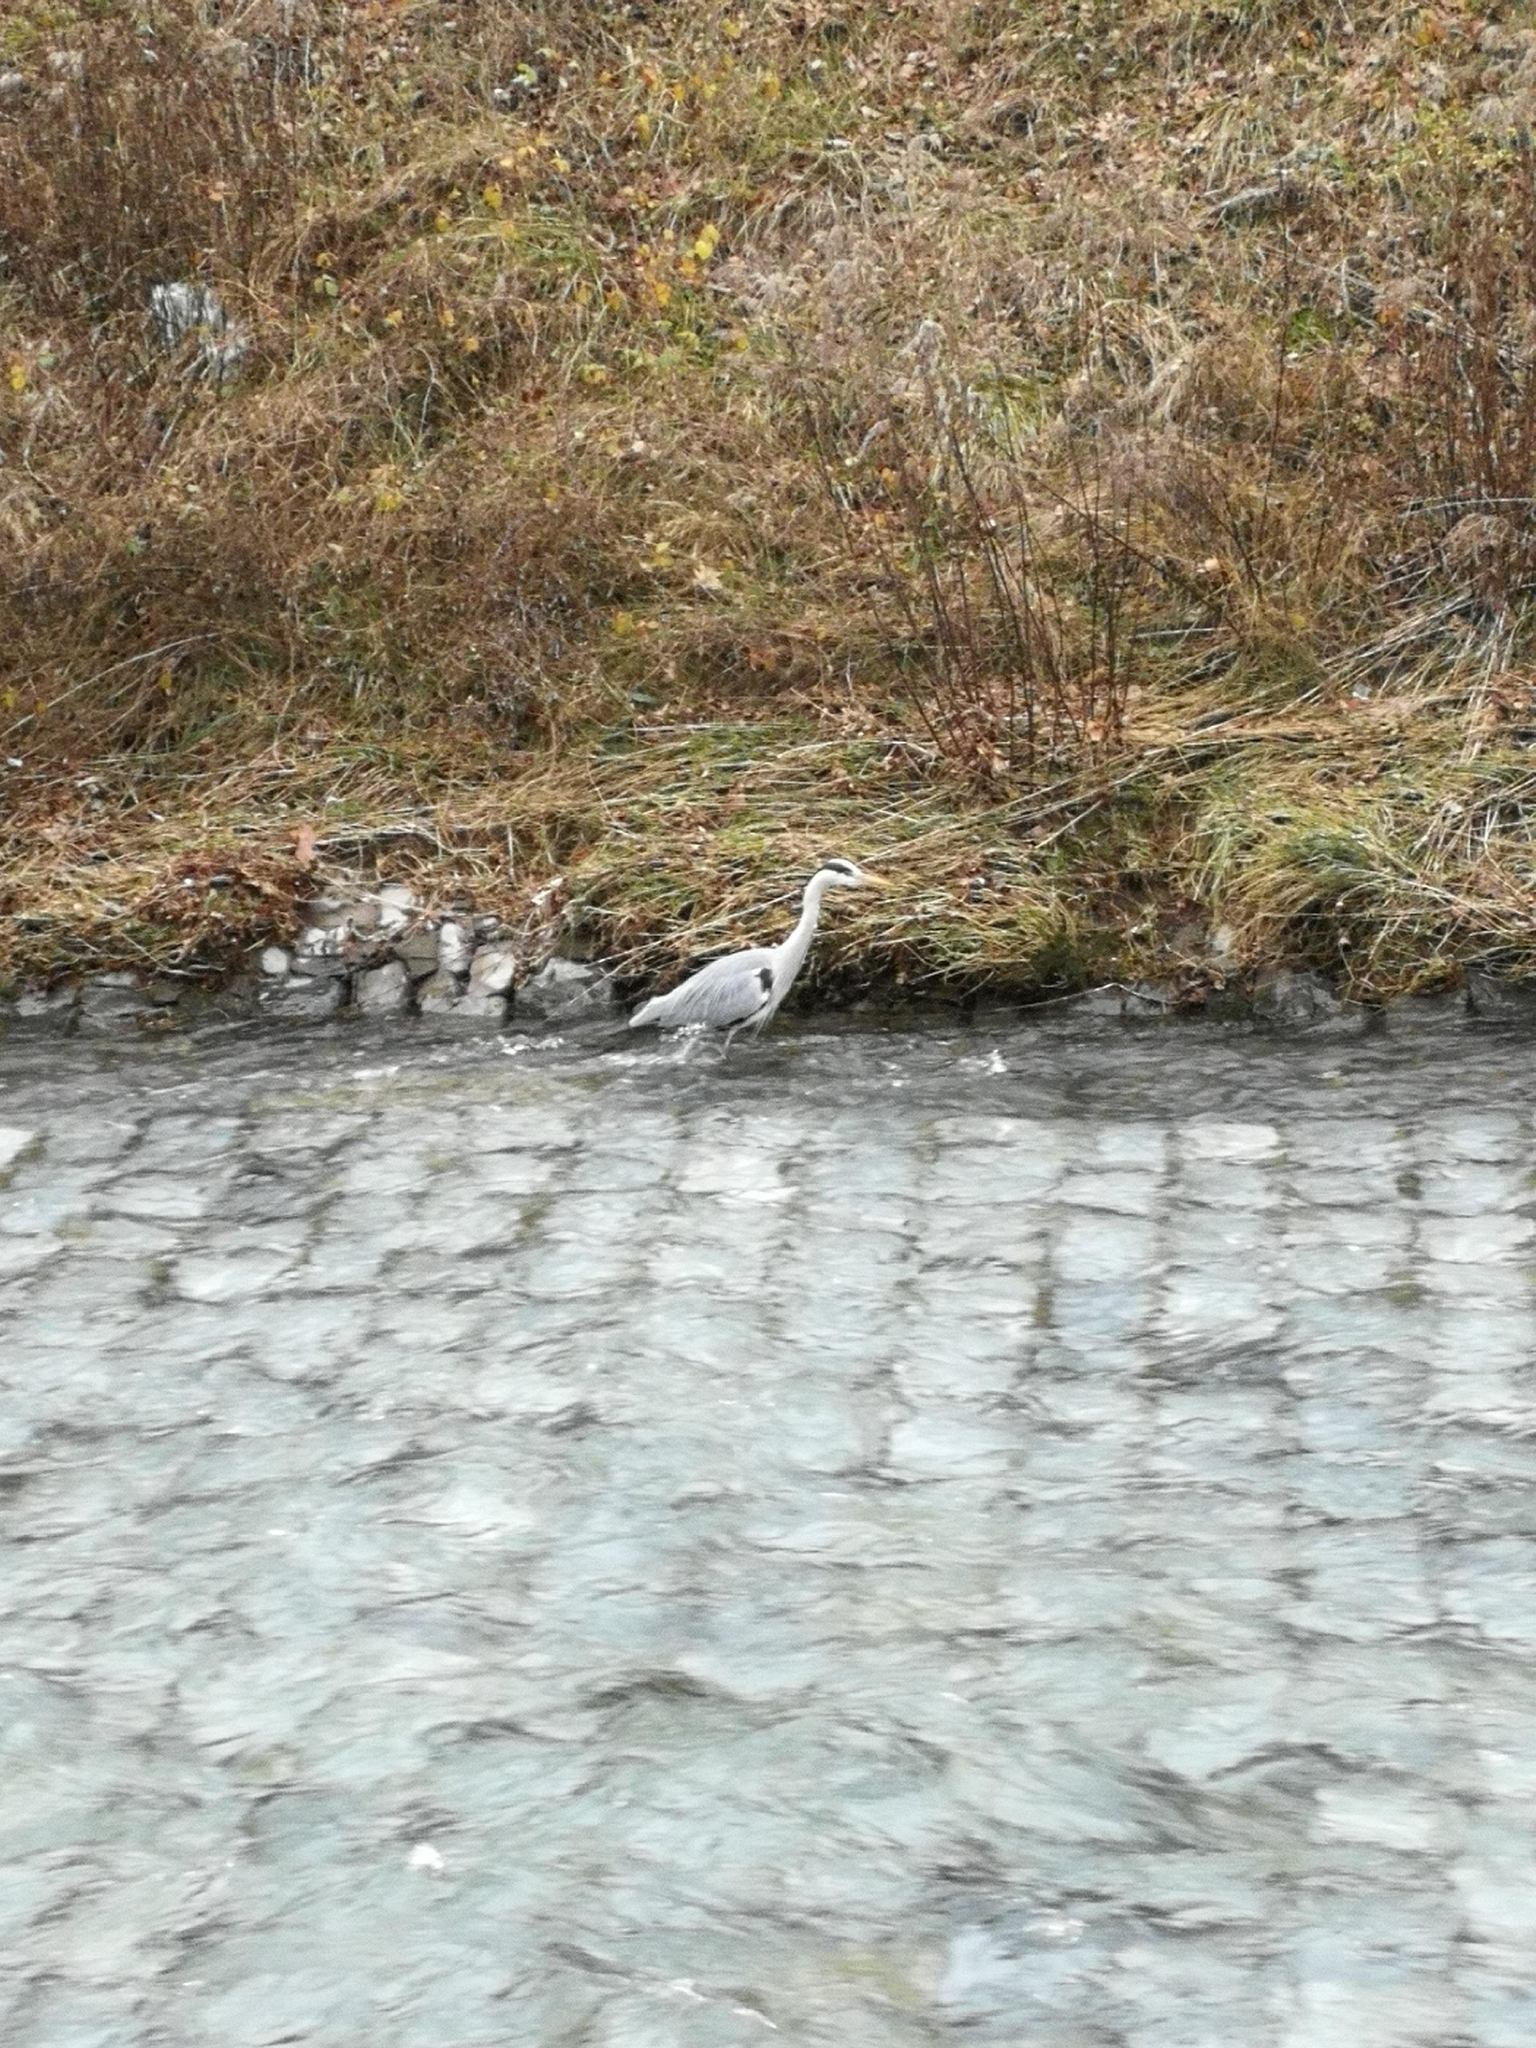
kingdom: Animalia
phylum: Chordata
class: Aves
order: Pelecaniformes
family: Ardeidae
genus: Ardea
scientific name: Ardea cinerea
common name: Grey heron
